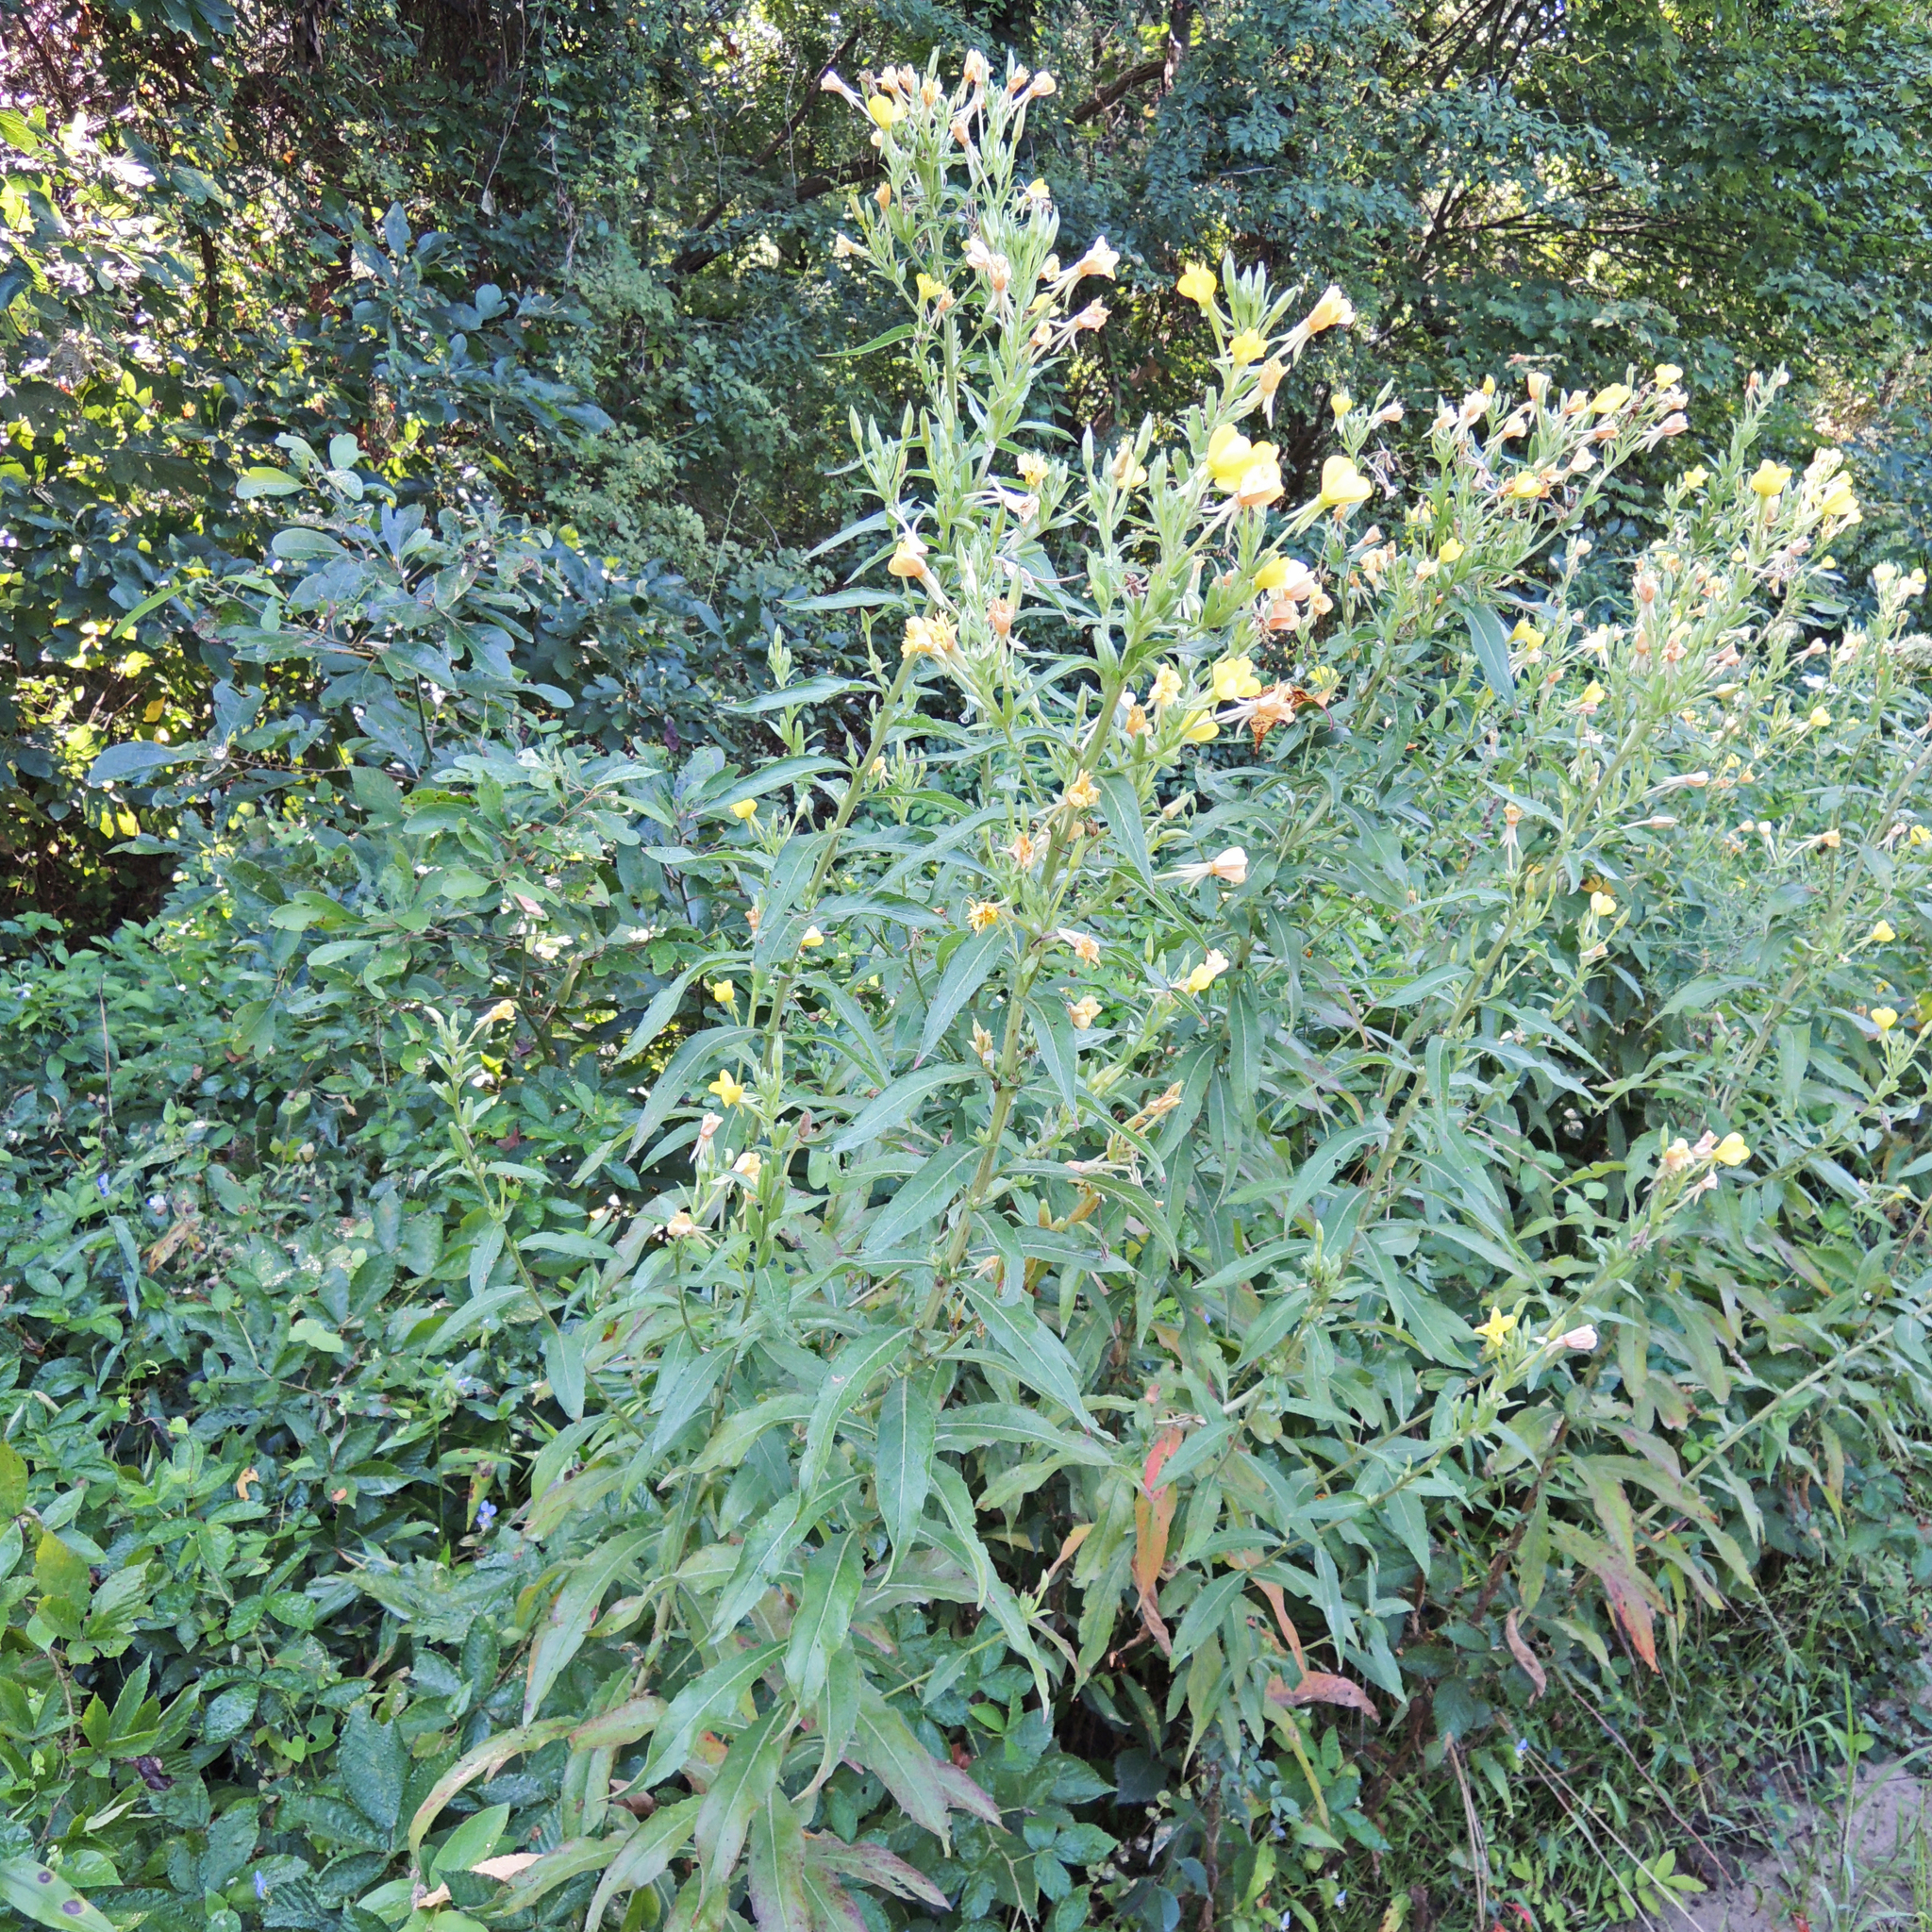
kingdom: Plantae
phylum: Tracheophyta
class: Magnoliopsida
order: Myrtales
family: Onagraceae
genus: Oenothera
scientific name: Oenothera biennis
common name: Common evening-primrose
